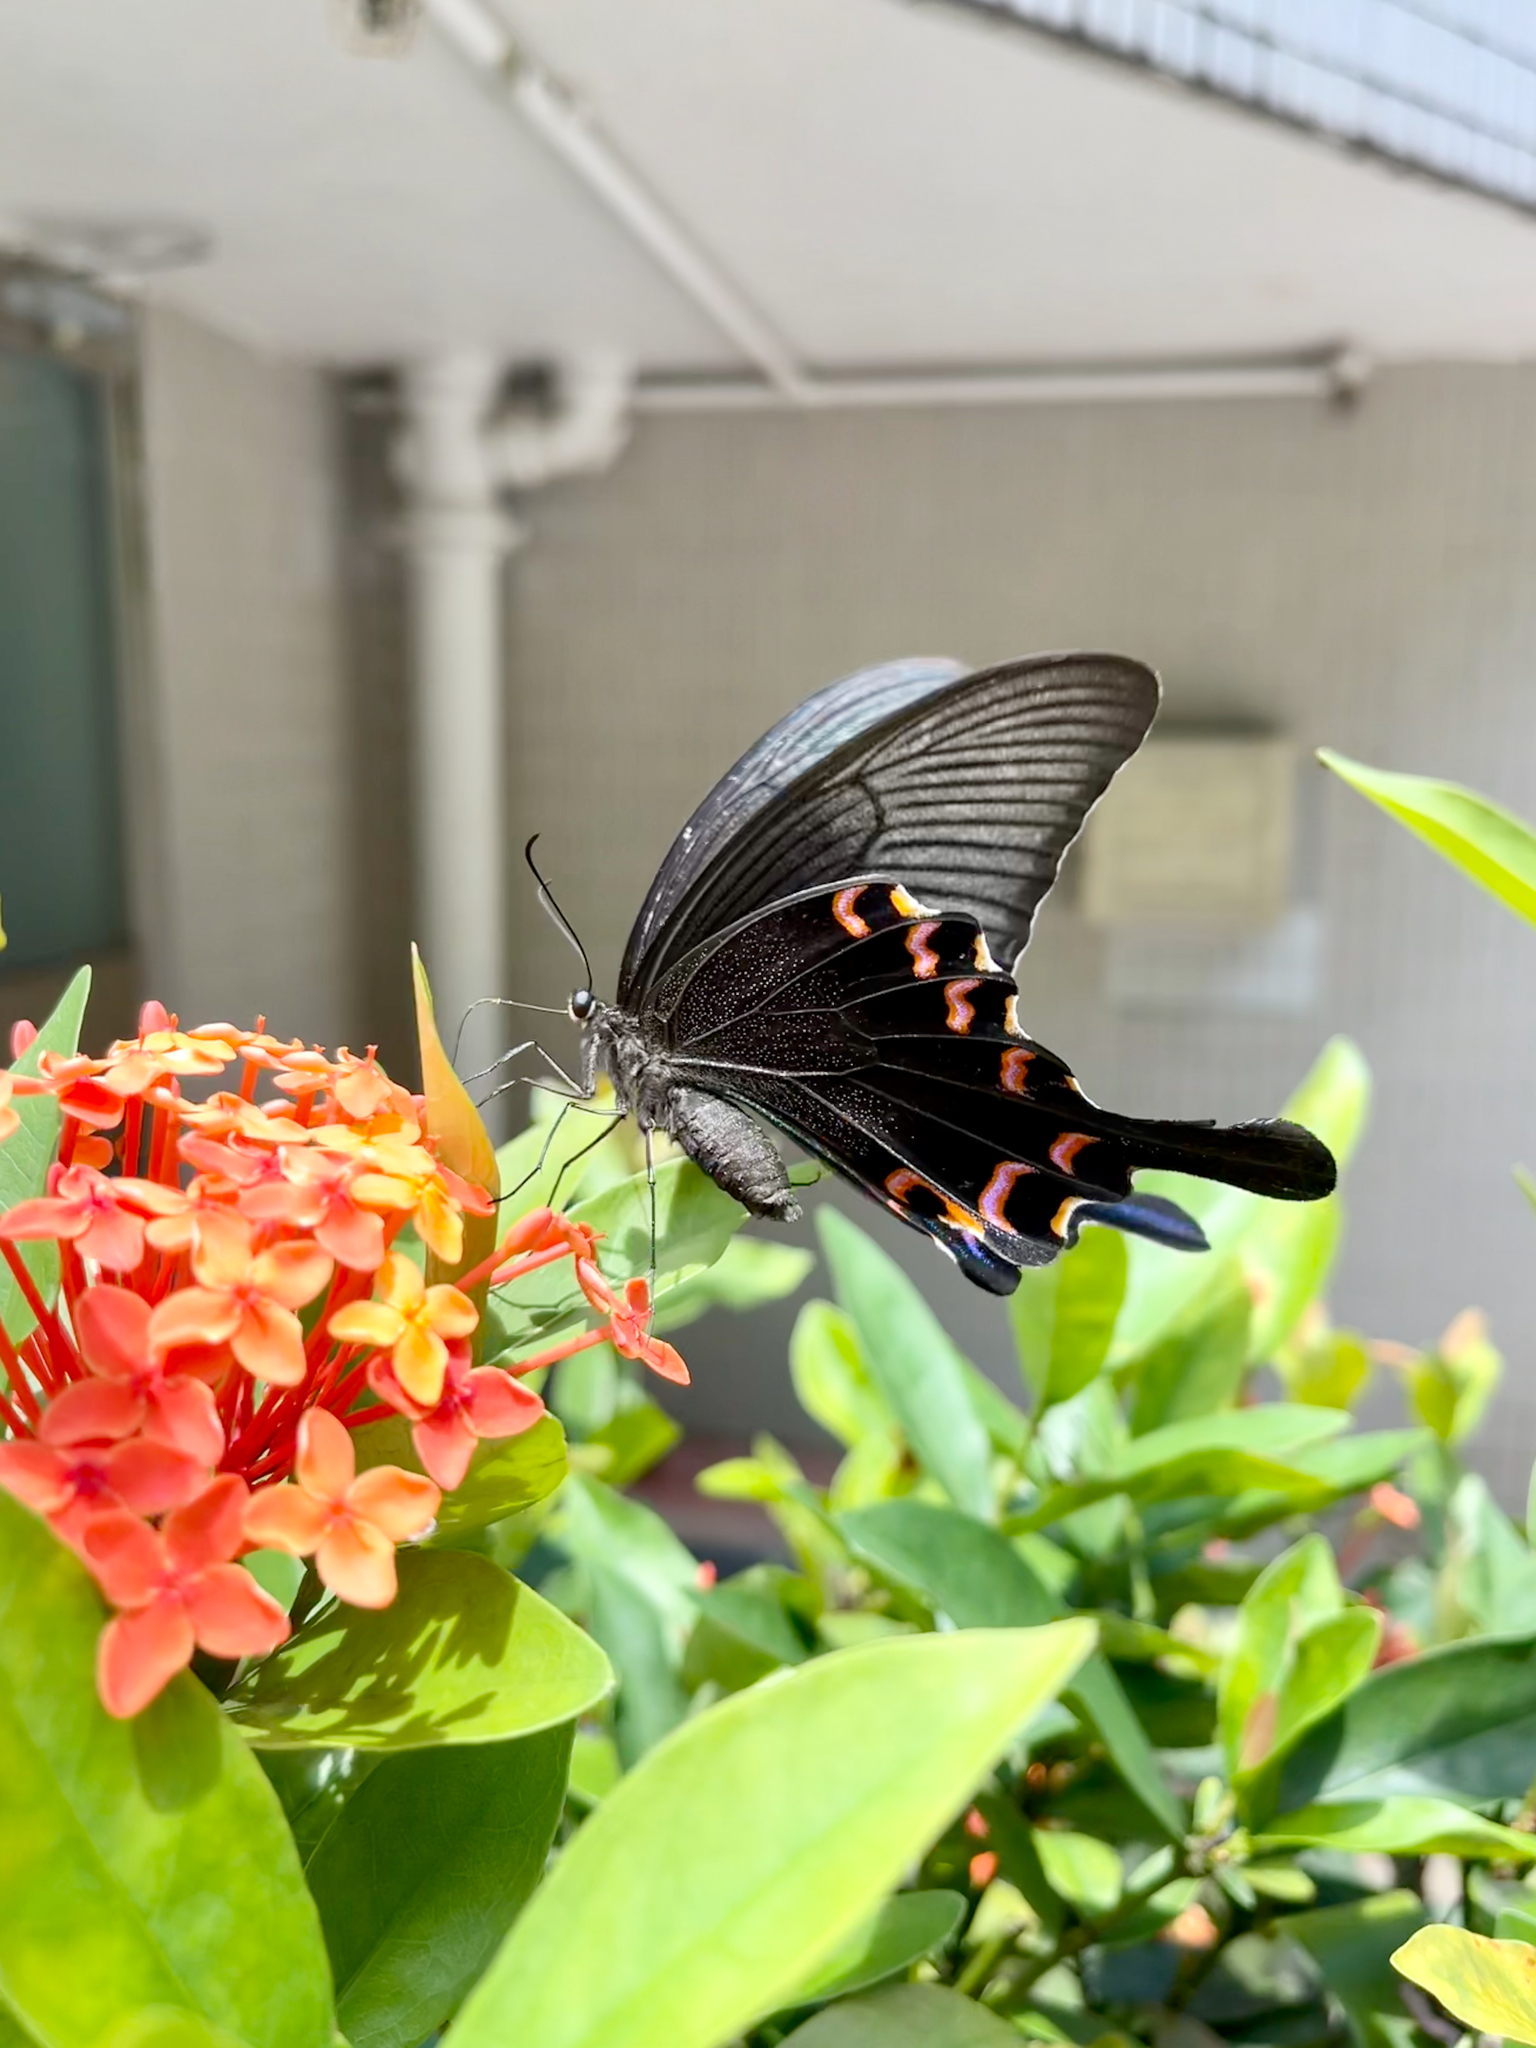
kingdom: Animalia
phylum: Arthropoda
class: Insecta
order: Lepidoptera
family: Papilionidae
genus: Papilio
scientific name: Papilio bianor
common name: Common peacock
